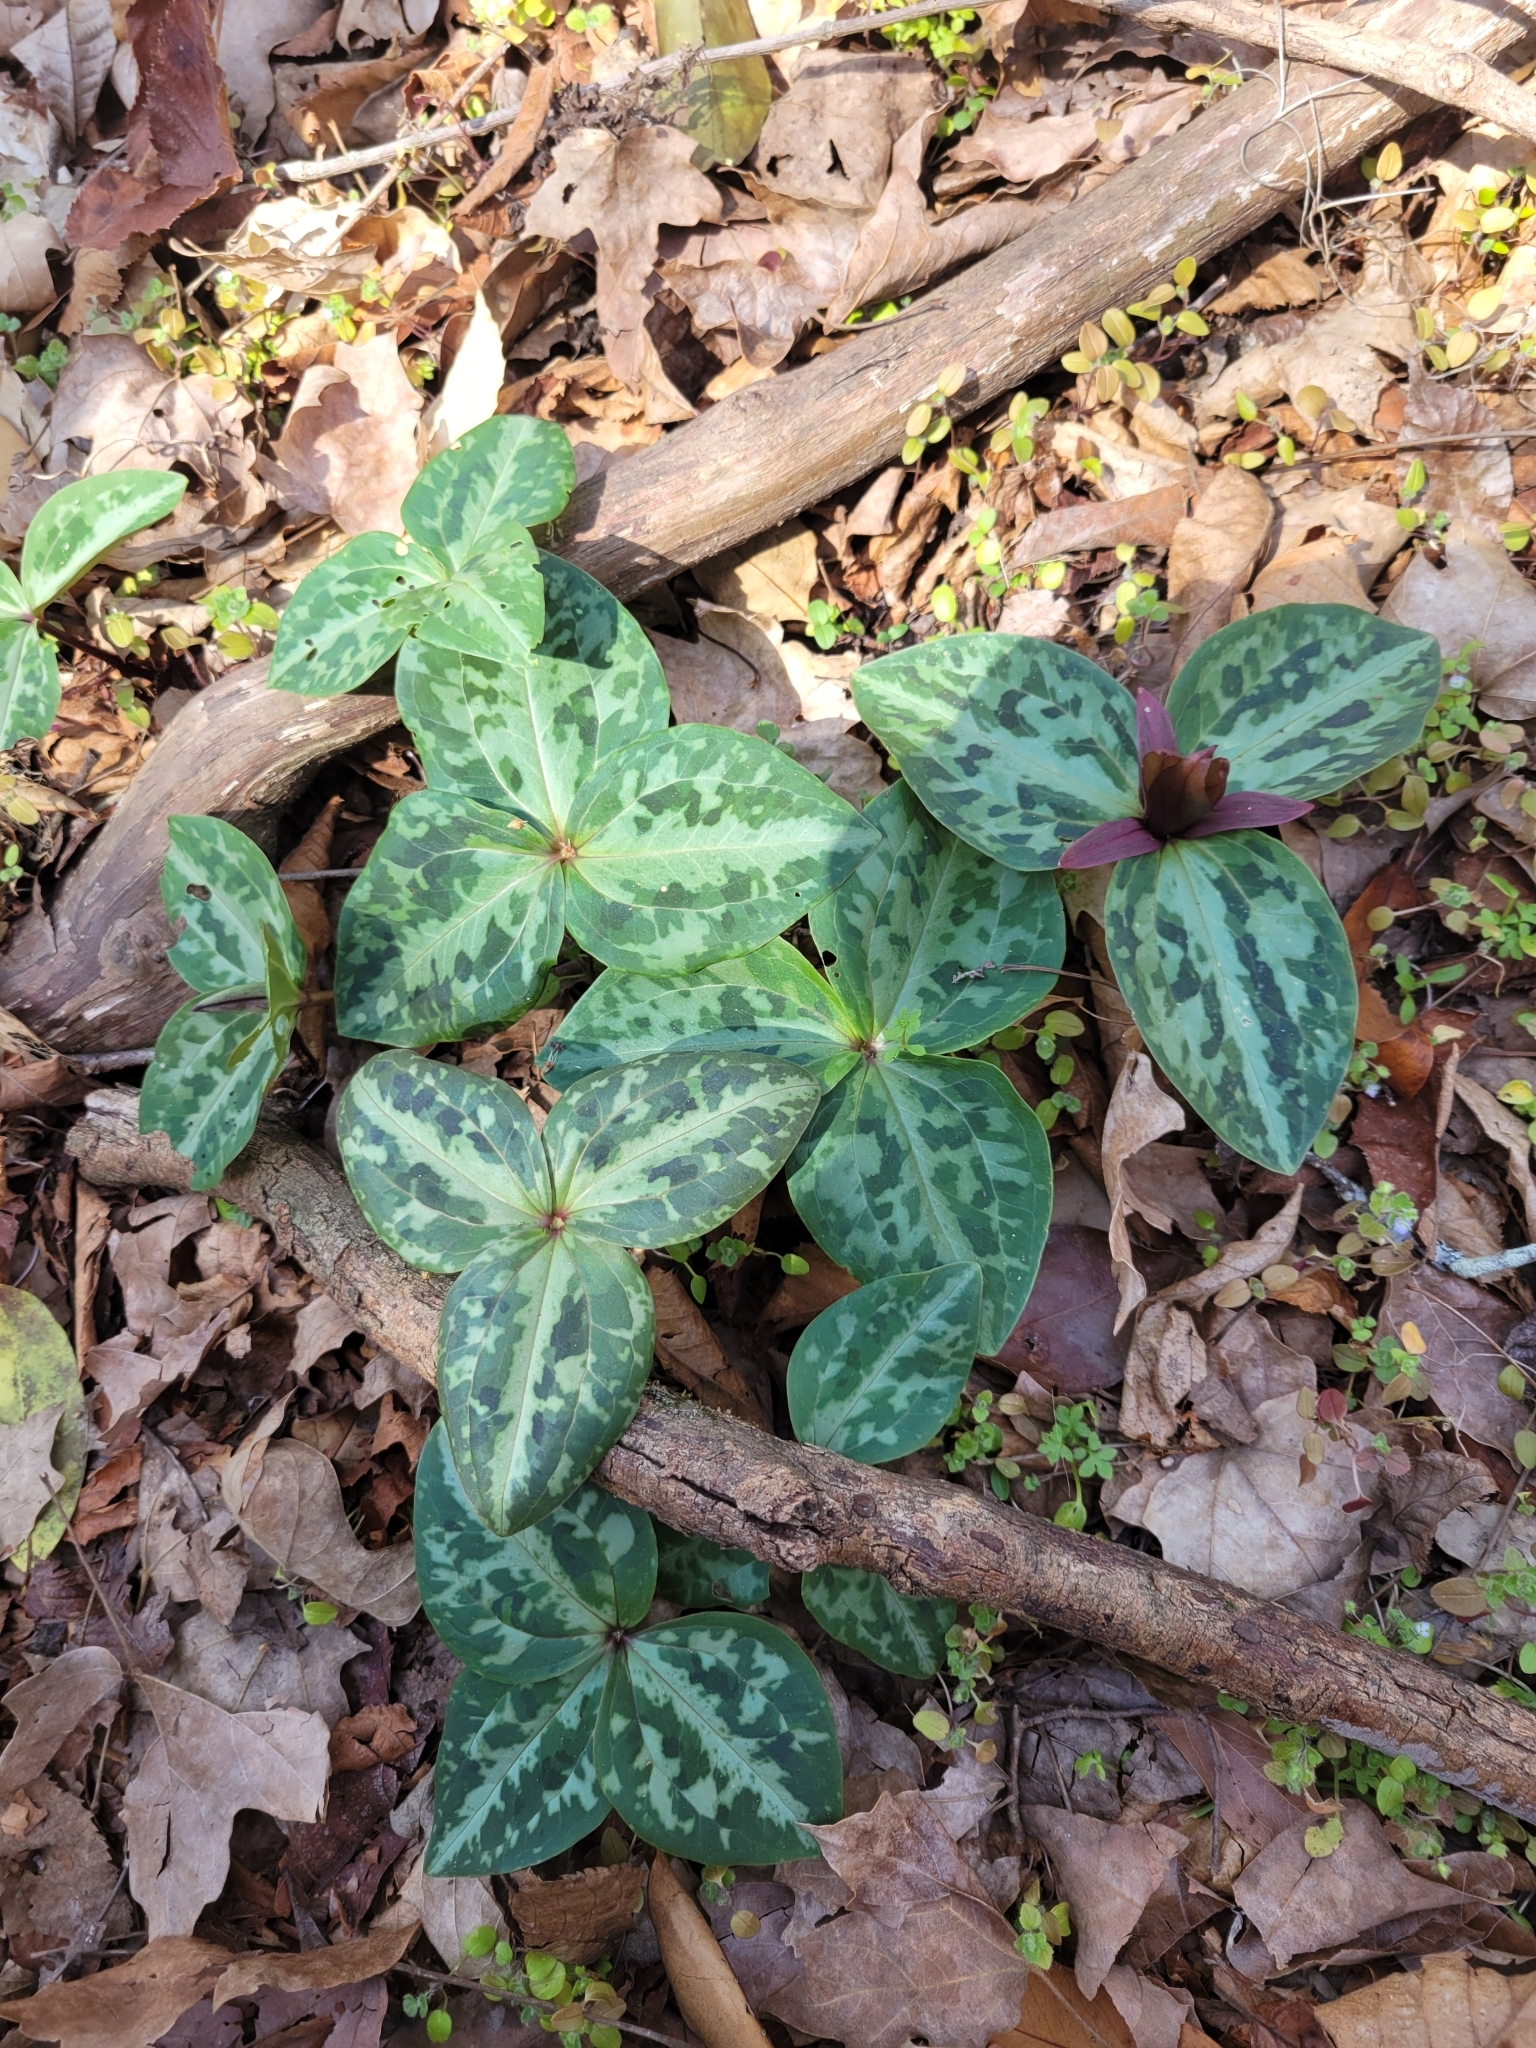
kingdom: Plantae
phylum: Tracheophyta
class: Liliopsida
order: Liliales
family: Melanthiaceae
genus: Trillium
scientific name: Trillium reliquum
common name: Relict trillium
